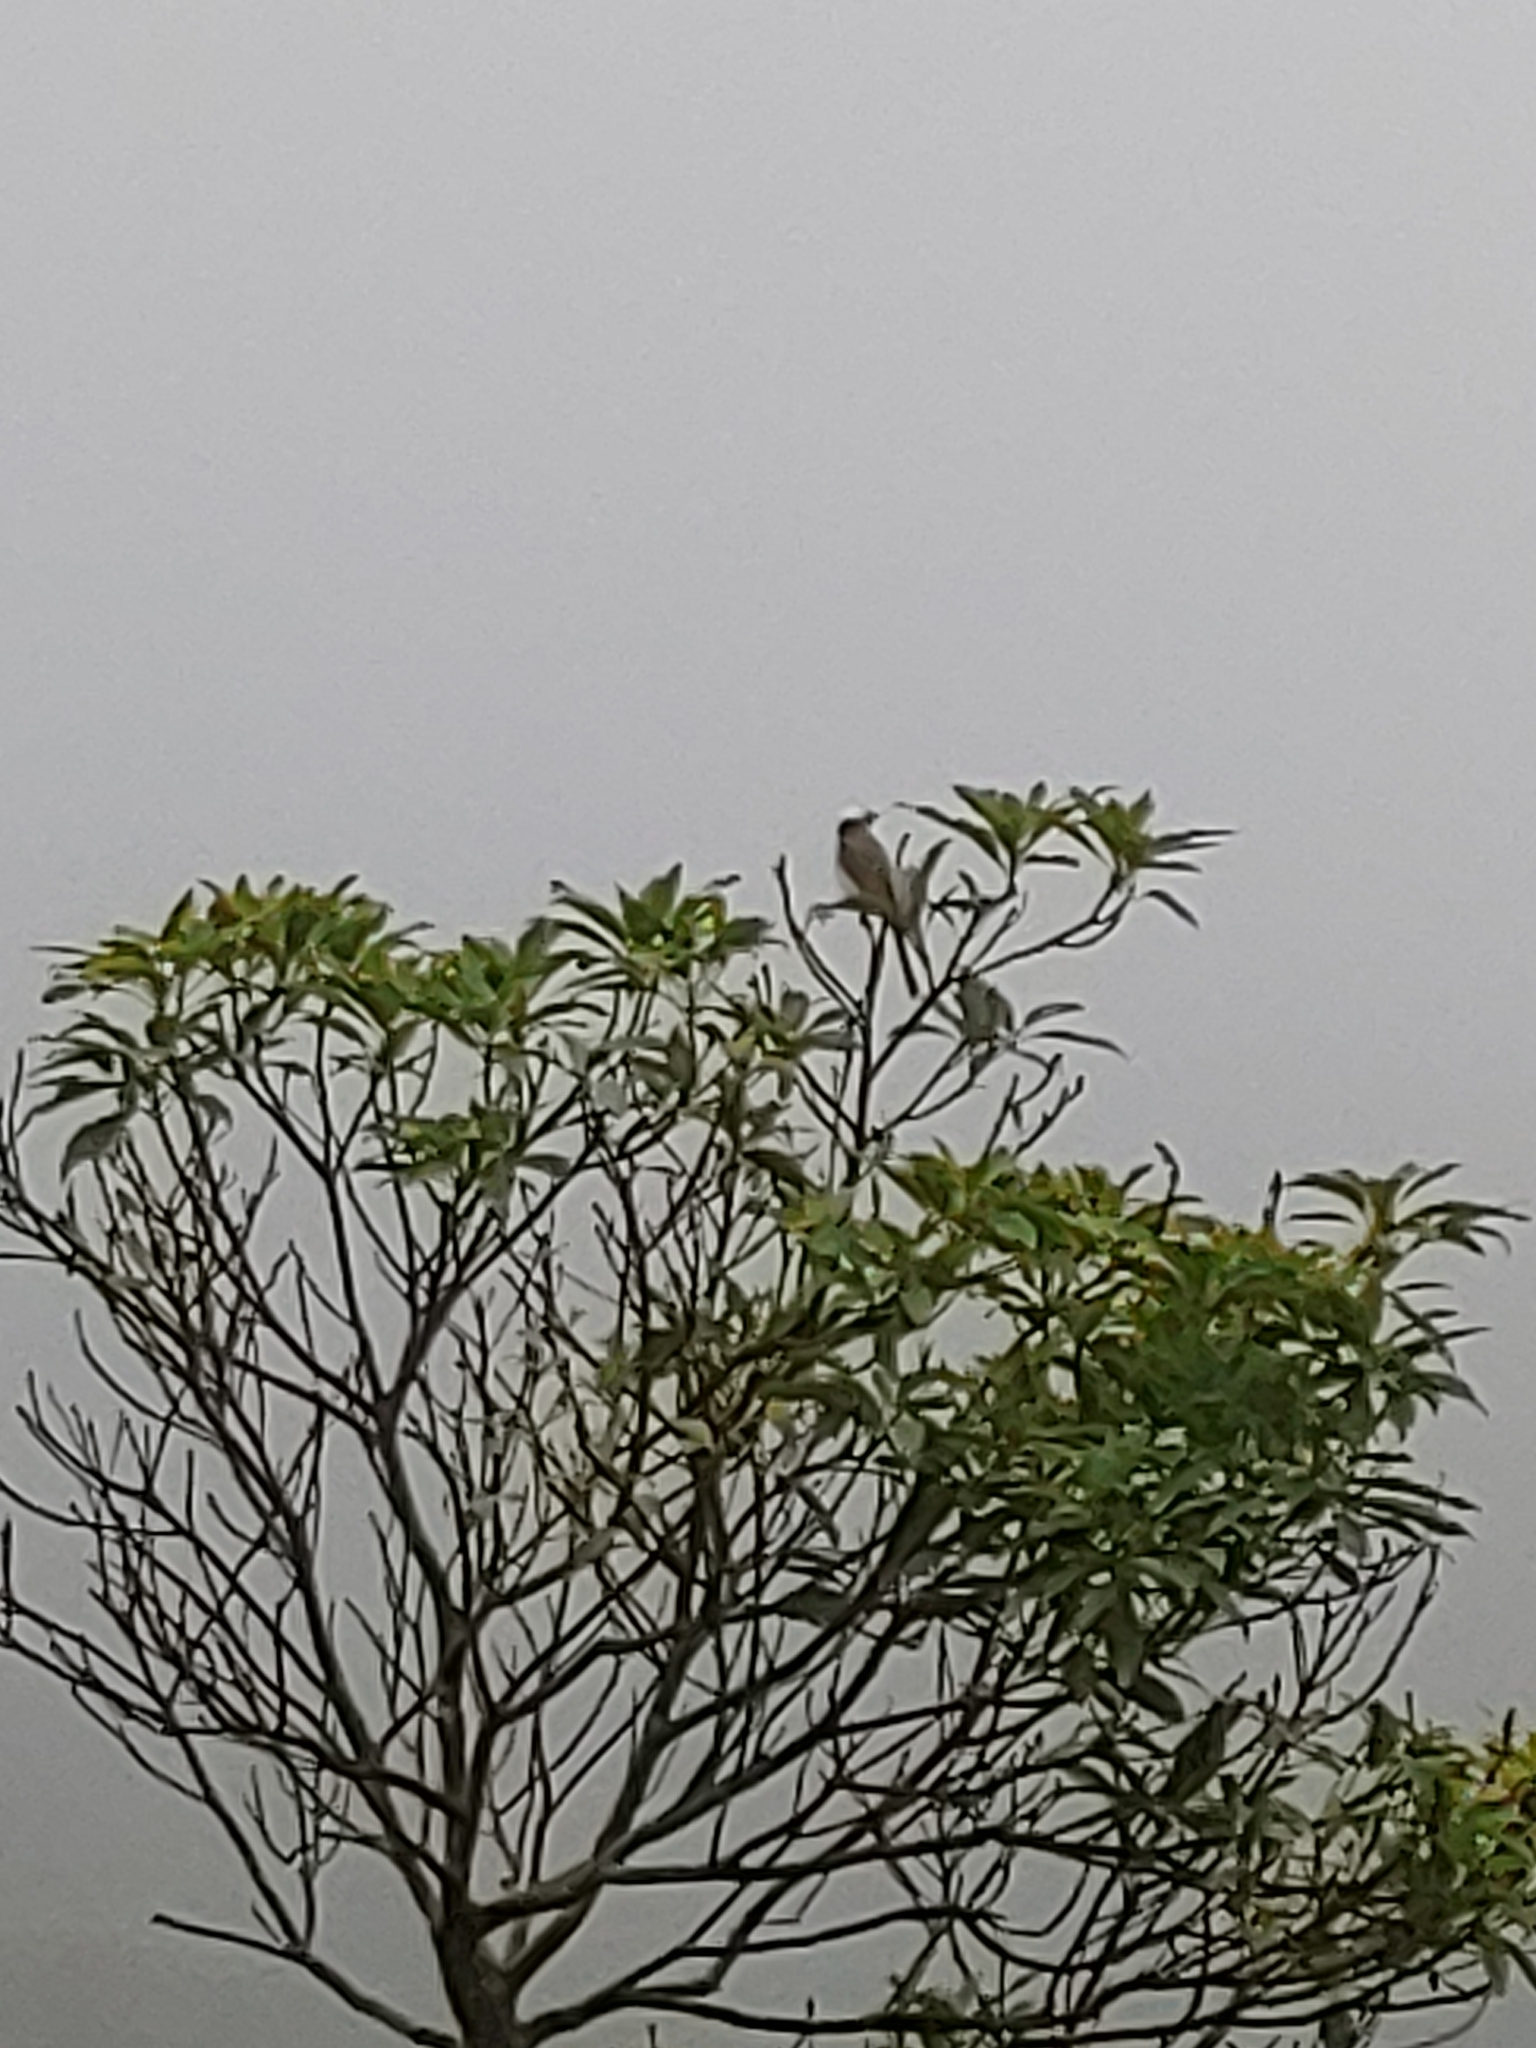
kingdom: Animalia
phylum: Chordata
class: Aves
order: Passeriformes
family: Pycnonotidae
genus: Pycnonotus
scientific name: Pycnonotus sinensis
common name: Light-vented bulbul
